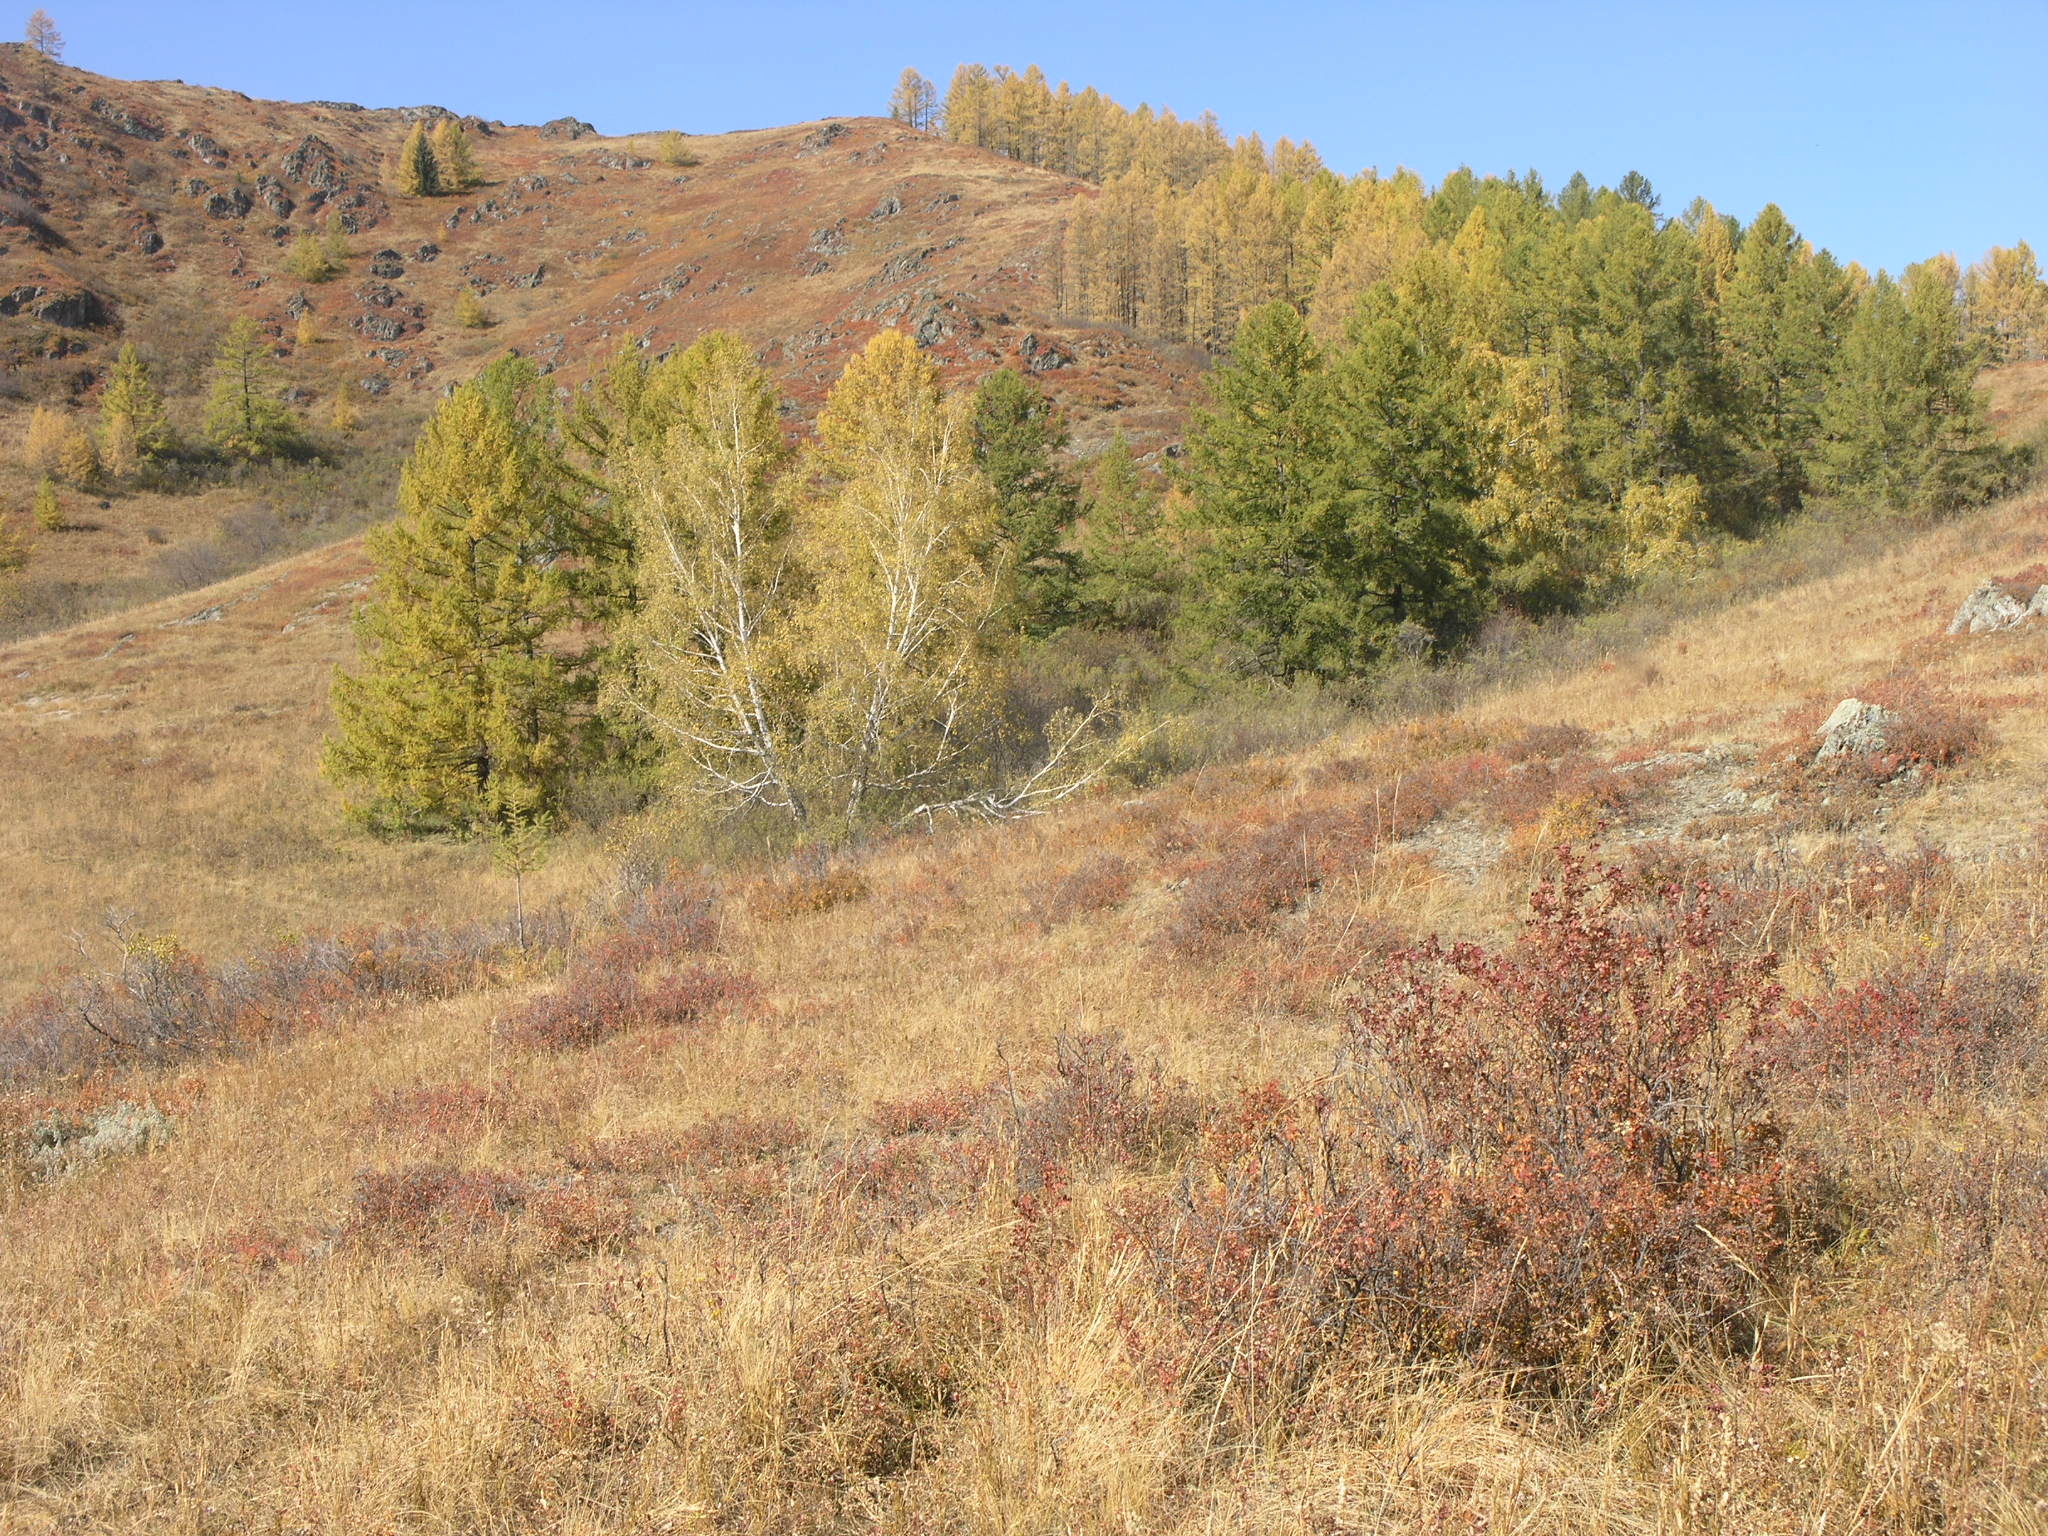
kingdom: Plantae
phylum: Tracheophyta
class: Magnoliopsida
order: Rosales
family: Rosaceae
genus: Cotoneaster
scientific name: Cotoneaster melanocarpus
